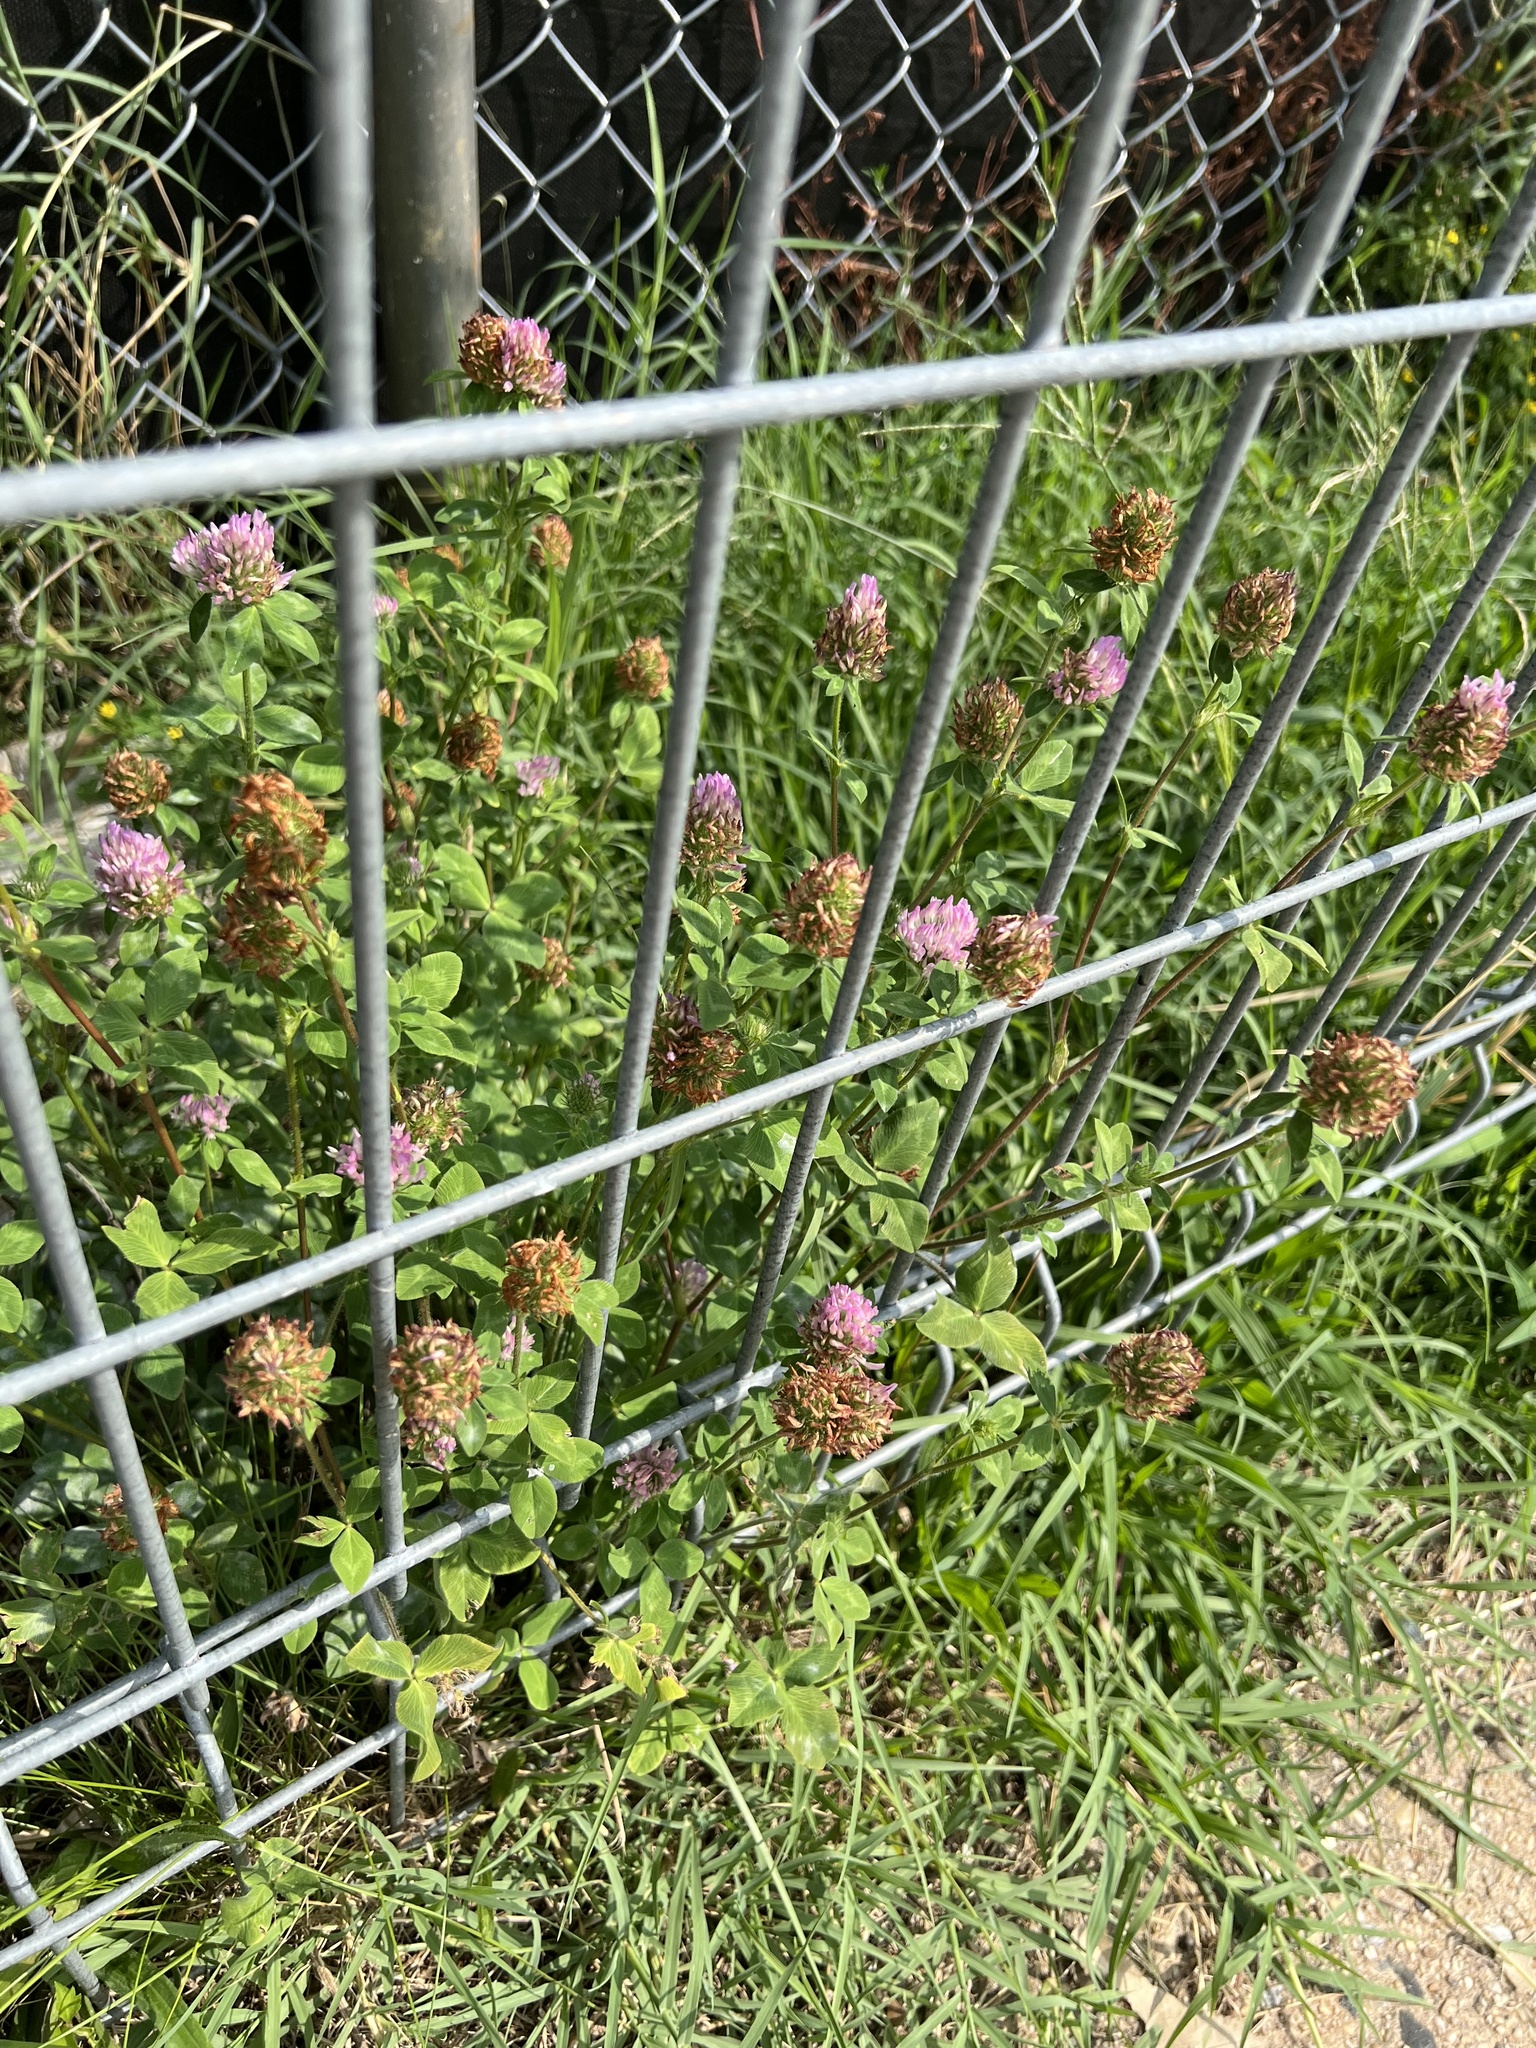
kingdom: Plantae
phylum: Tracheophyta
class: Magnoliopsida
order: Fabales
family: Fabaceae
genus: Trifolium
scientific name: Trifolium pratense
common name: Red clover
